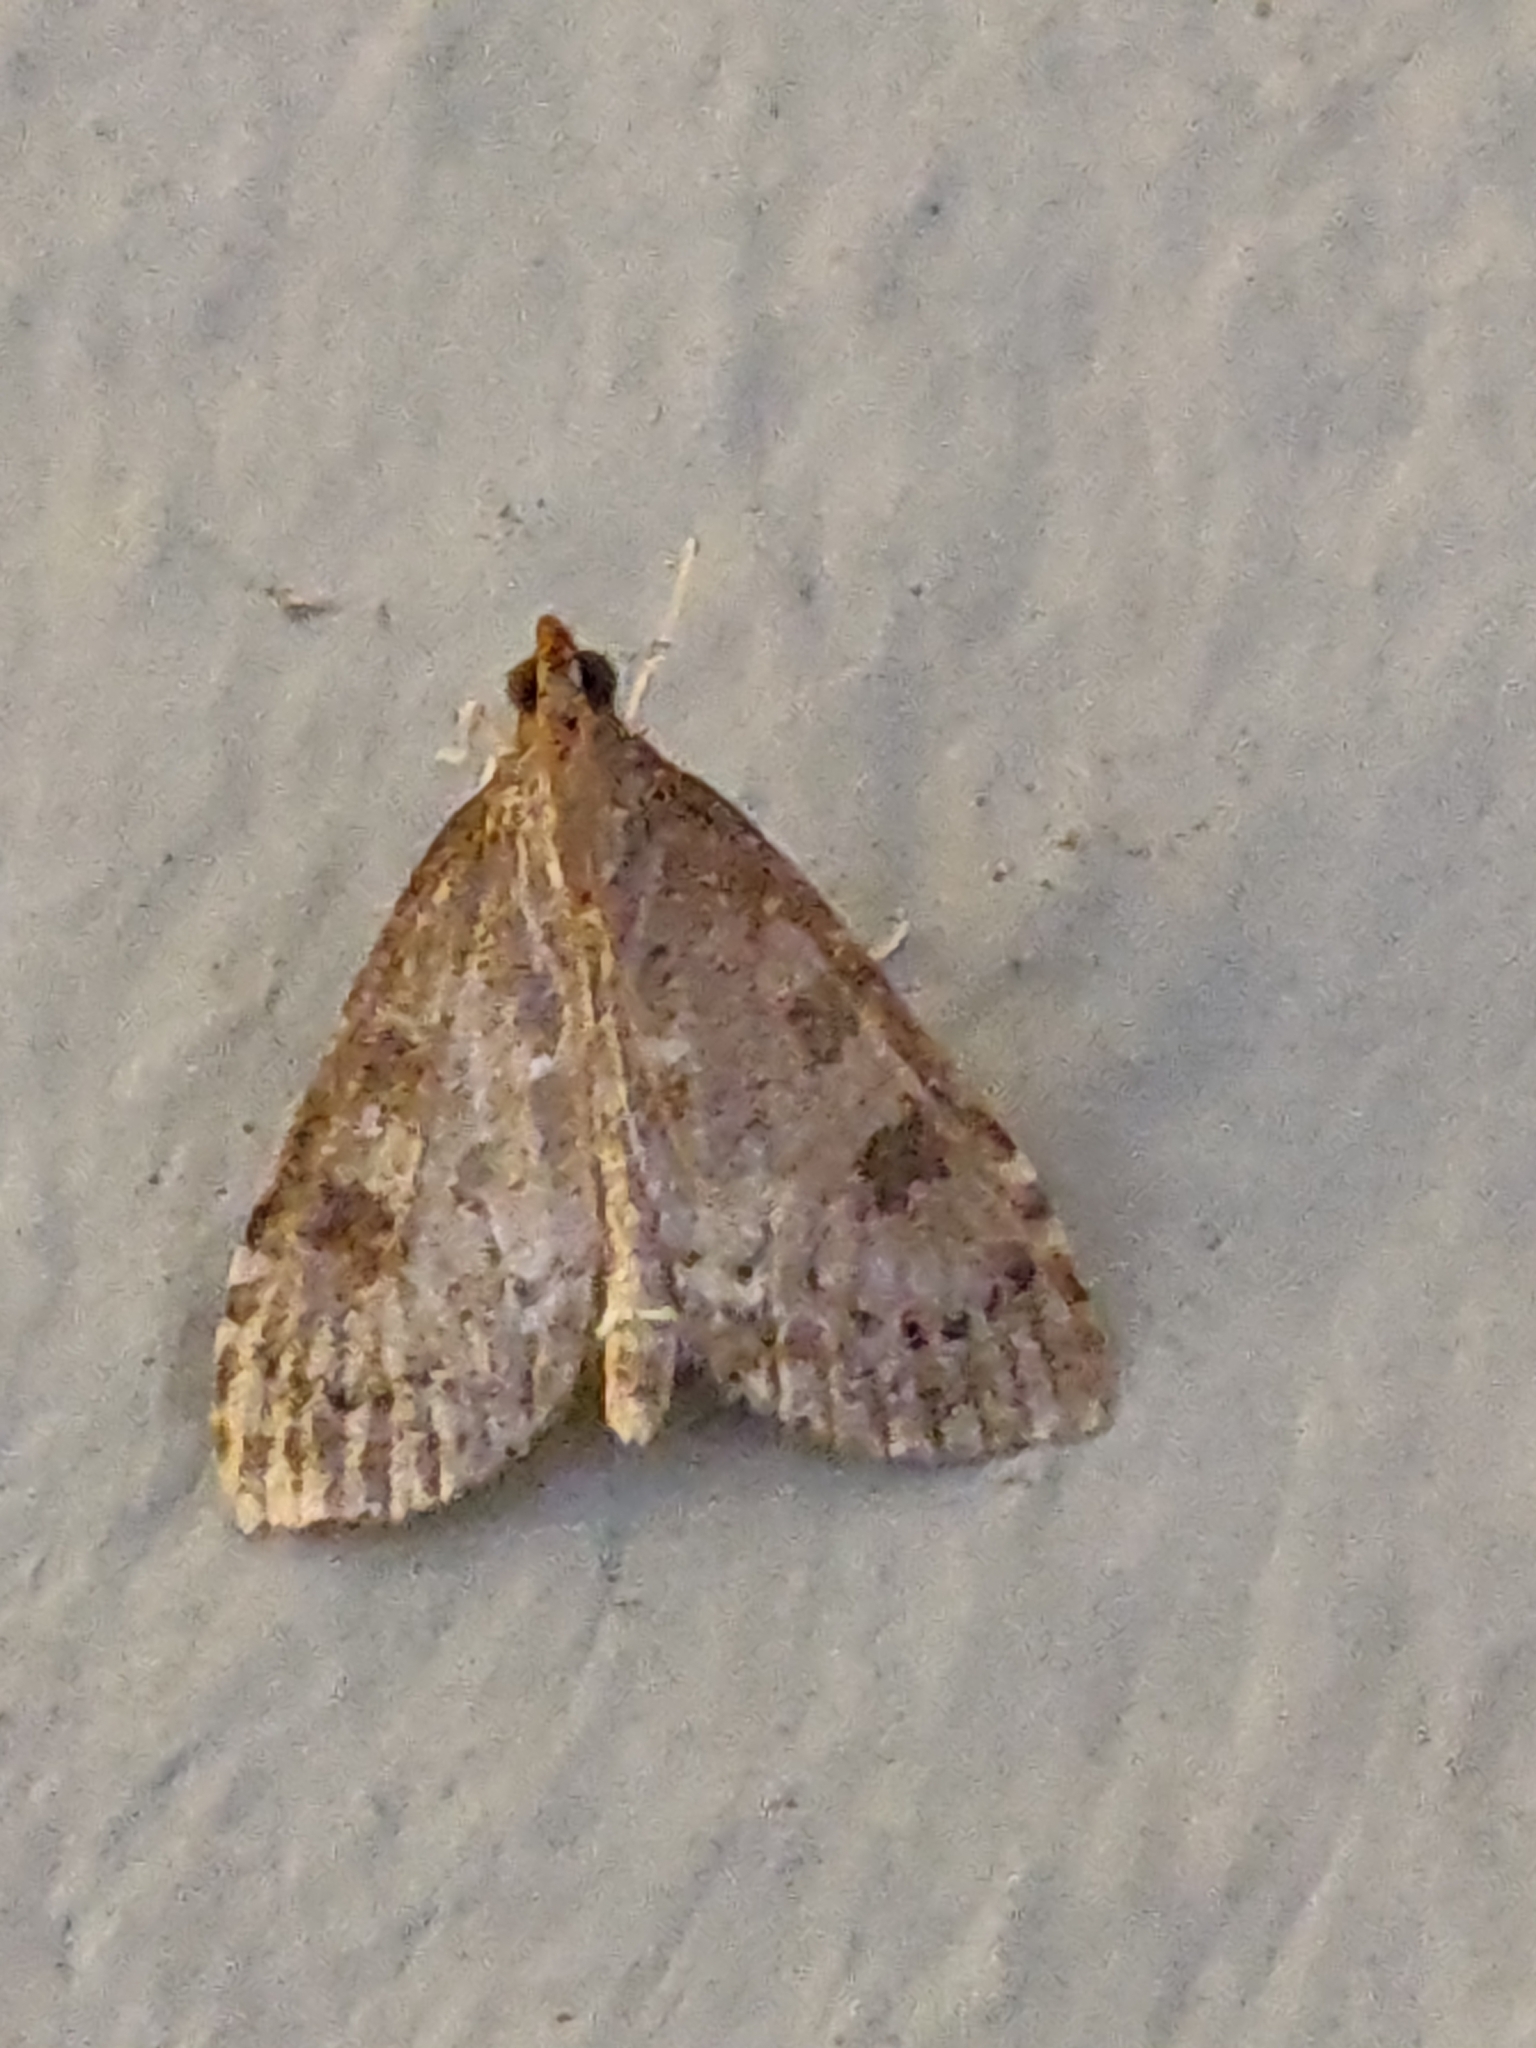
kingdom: Animalia
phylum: Arthropoda
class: Insecta
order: Lepidoptera
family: Crambidae
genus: Udea
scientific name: Udea prunalis
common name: Dusky pearl
